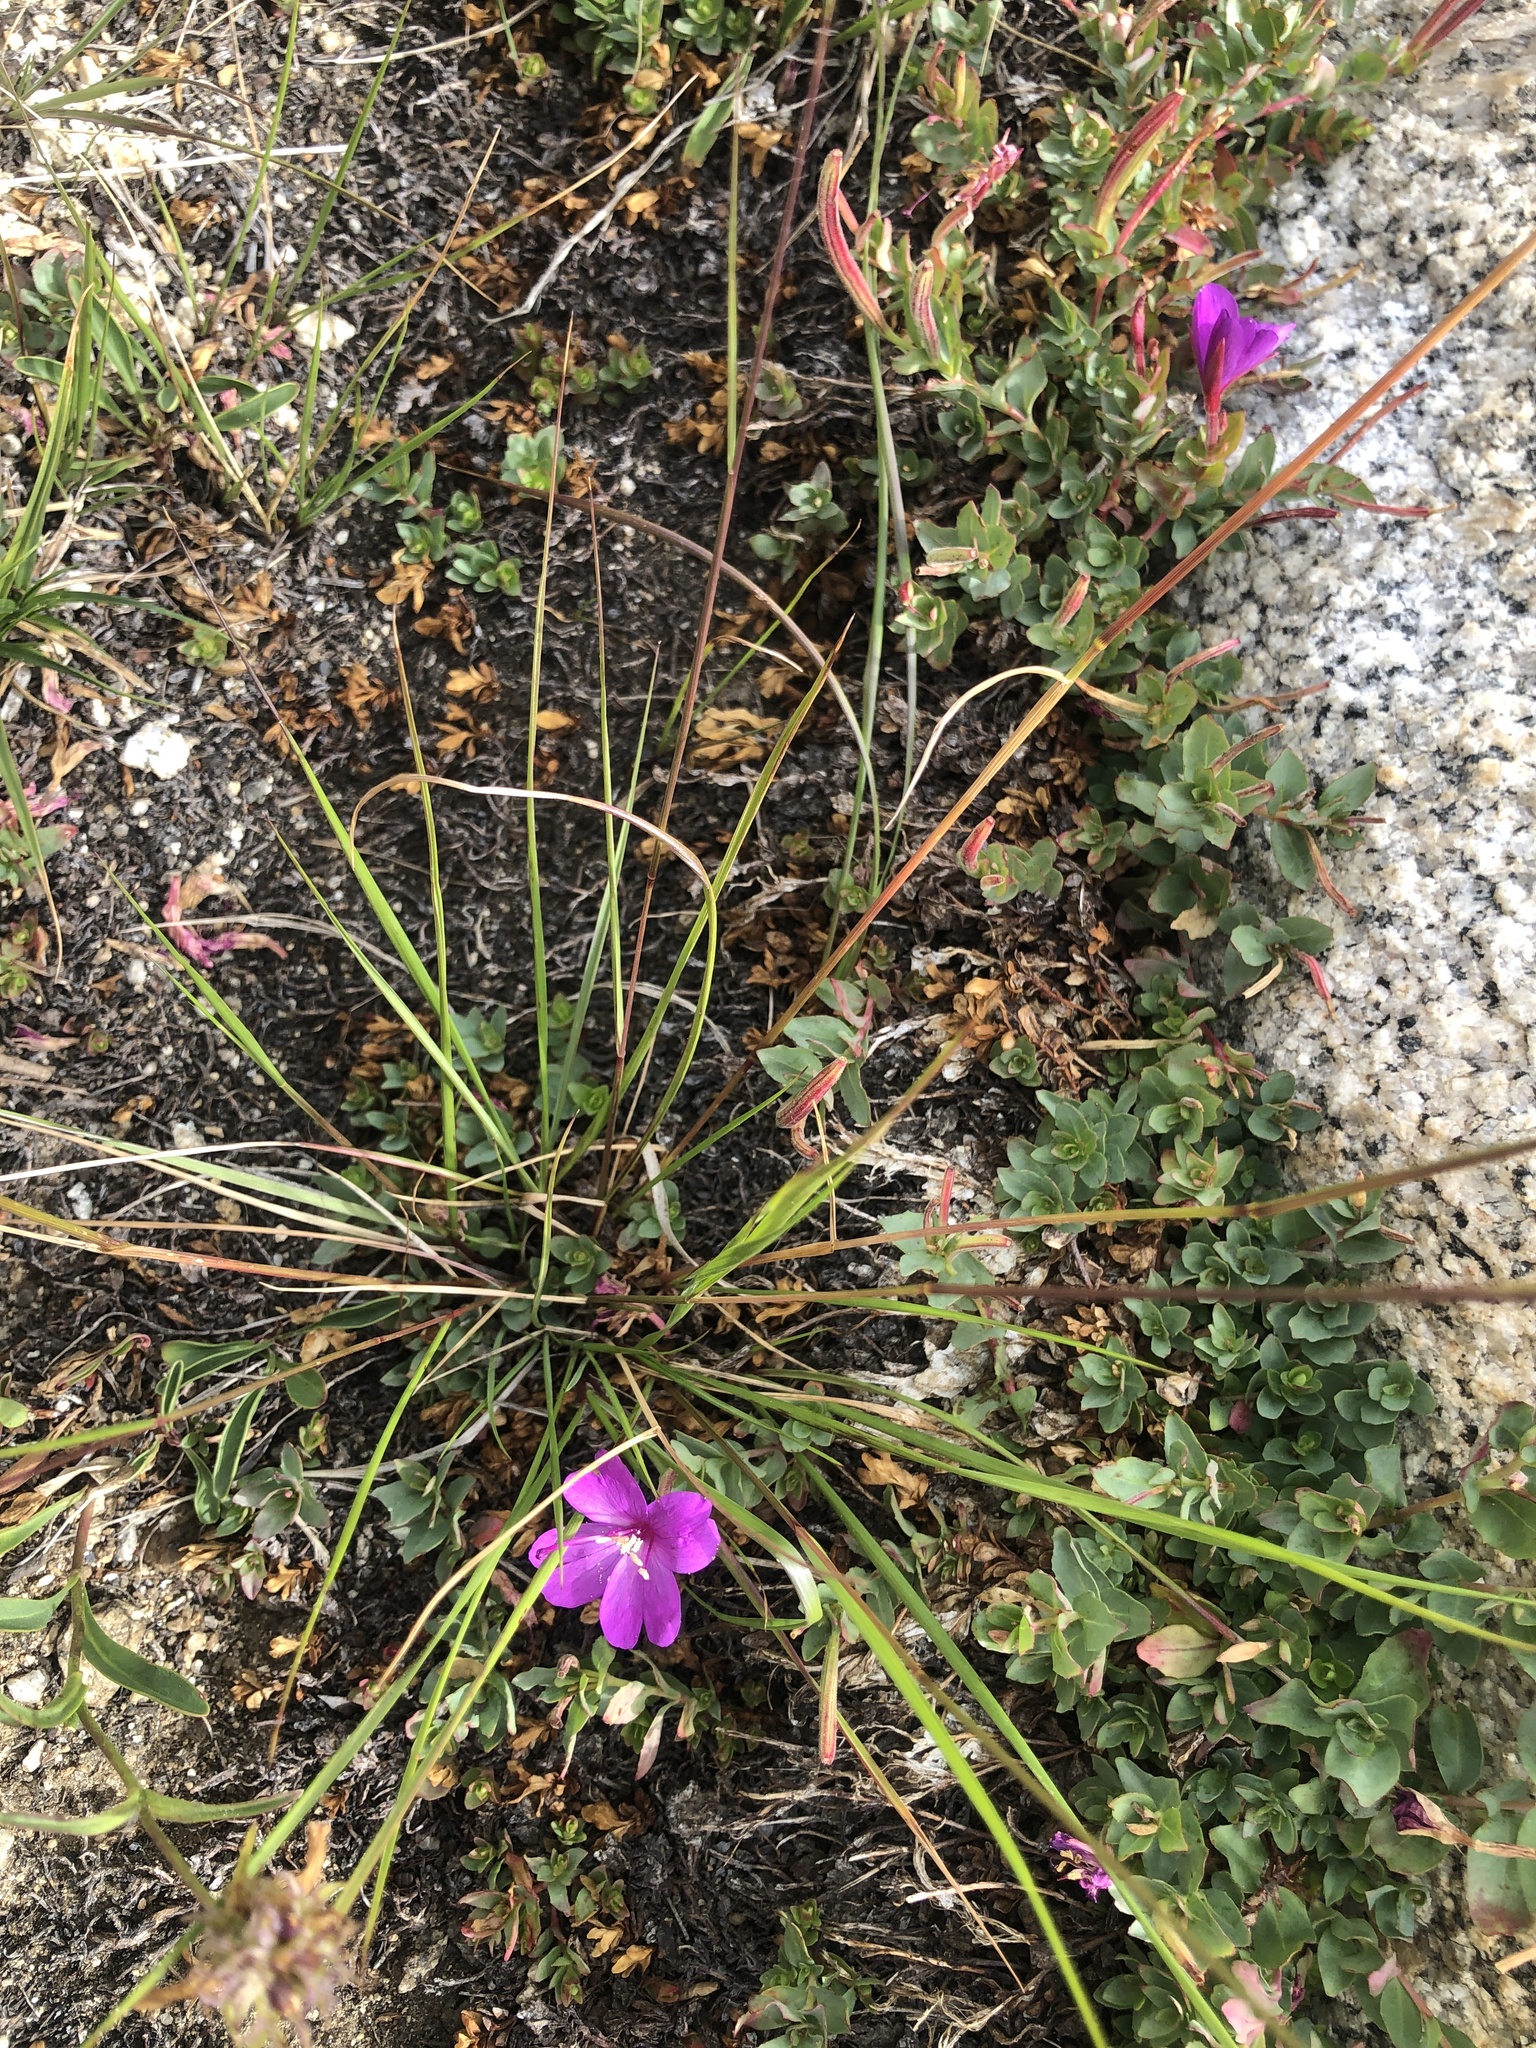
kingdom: Plantae
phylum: Tracheophyta
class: Magnoliopsida
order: Myrtales
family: Onagraceae
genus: Epilobium
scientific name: Epilobium obcordatum
